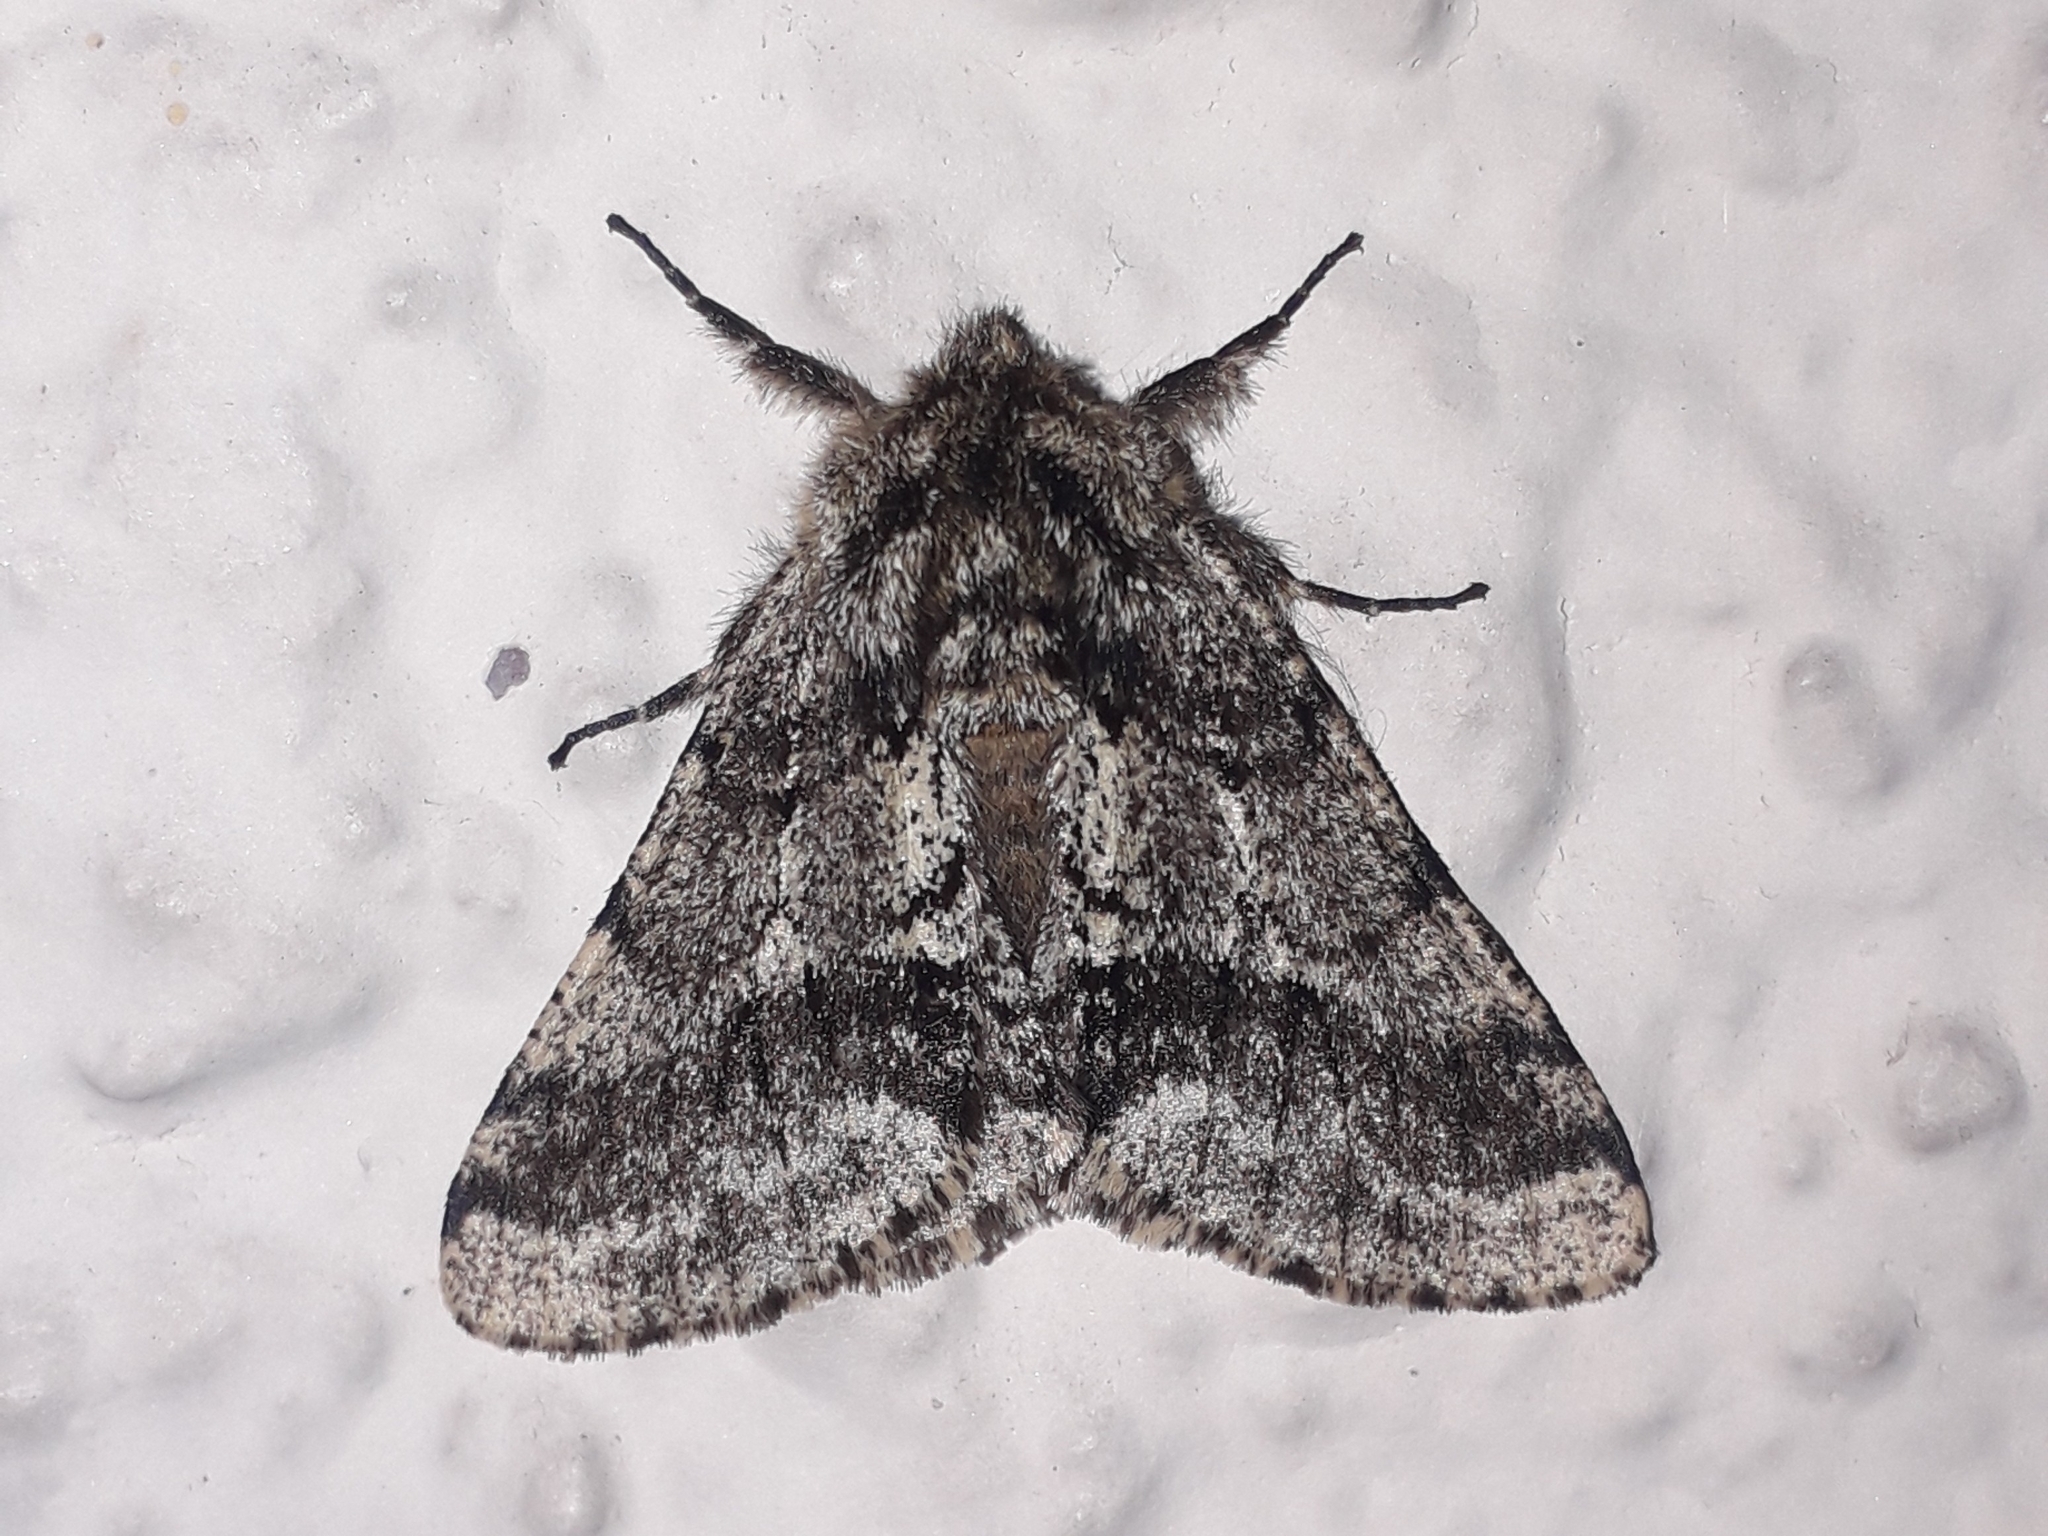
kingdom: Animalia
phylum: Arthropoda
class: Insecta
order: Lepidoptera
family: Geometridae
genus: Lycia
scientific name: Lycia hirtaria
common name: Brindled beauty
